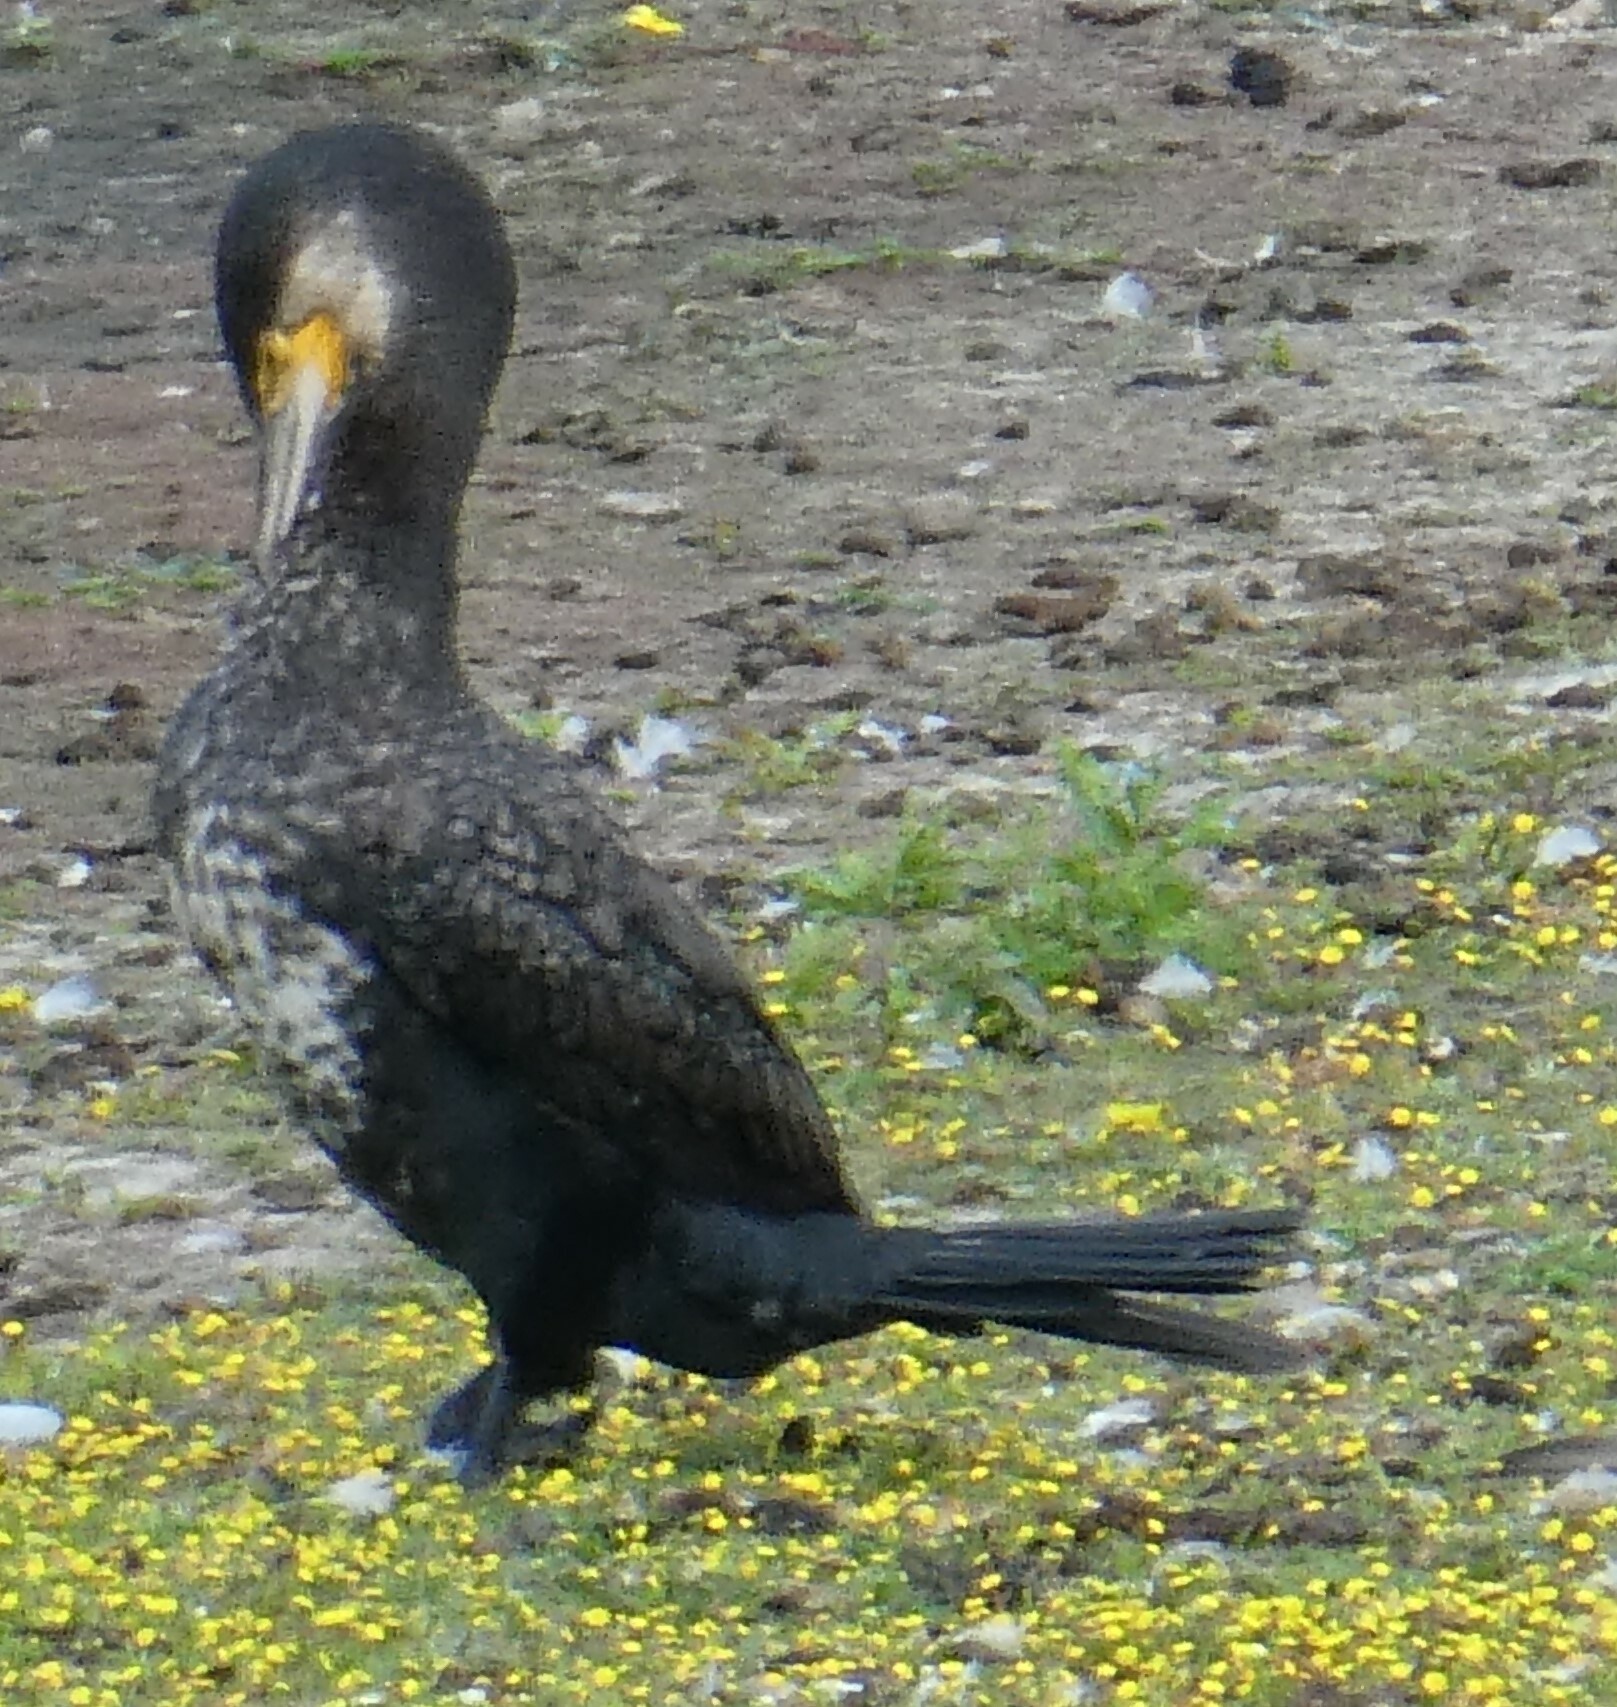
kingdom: Animalia
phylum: Chordata
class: Aves
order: Suliformes
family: Phalacrocoracidae
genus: Phalacrocorax
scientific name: Phalacrocorax carbo
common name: Great cormorant
